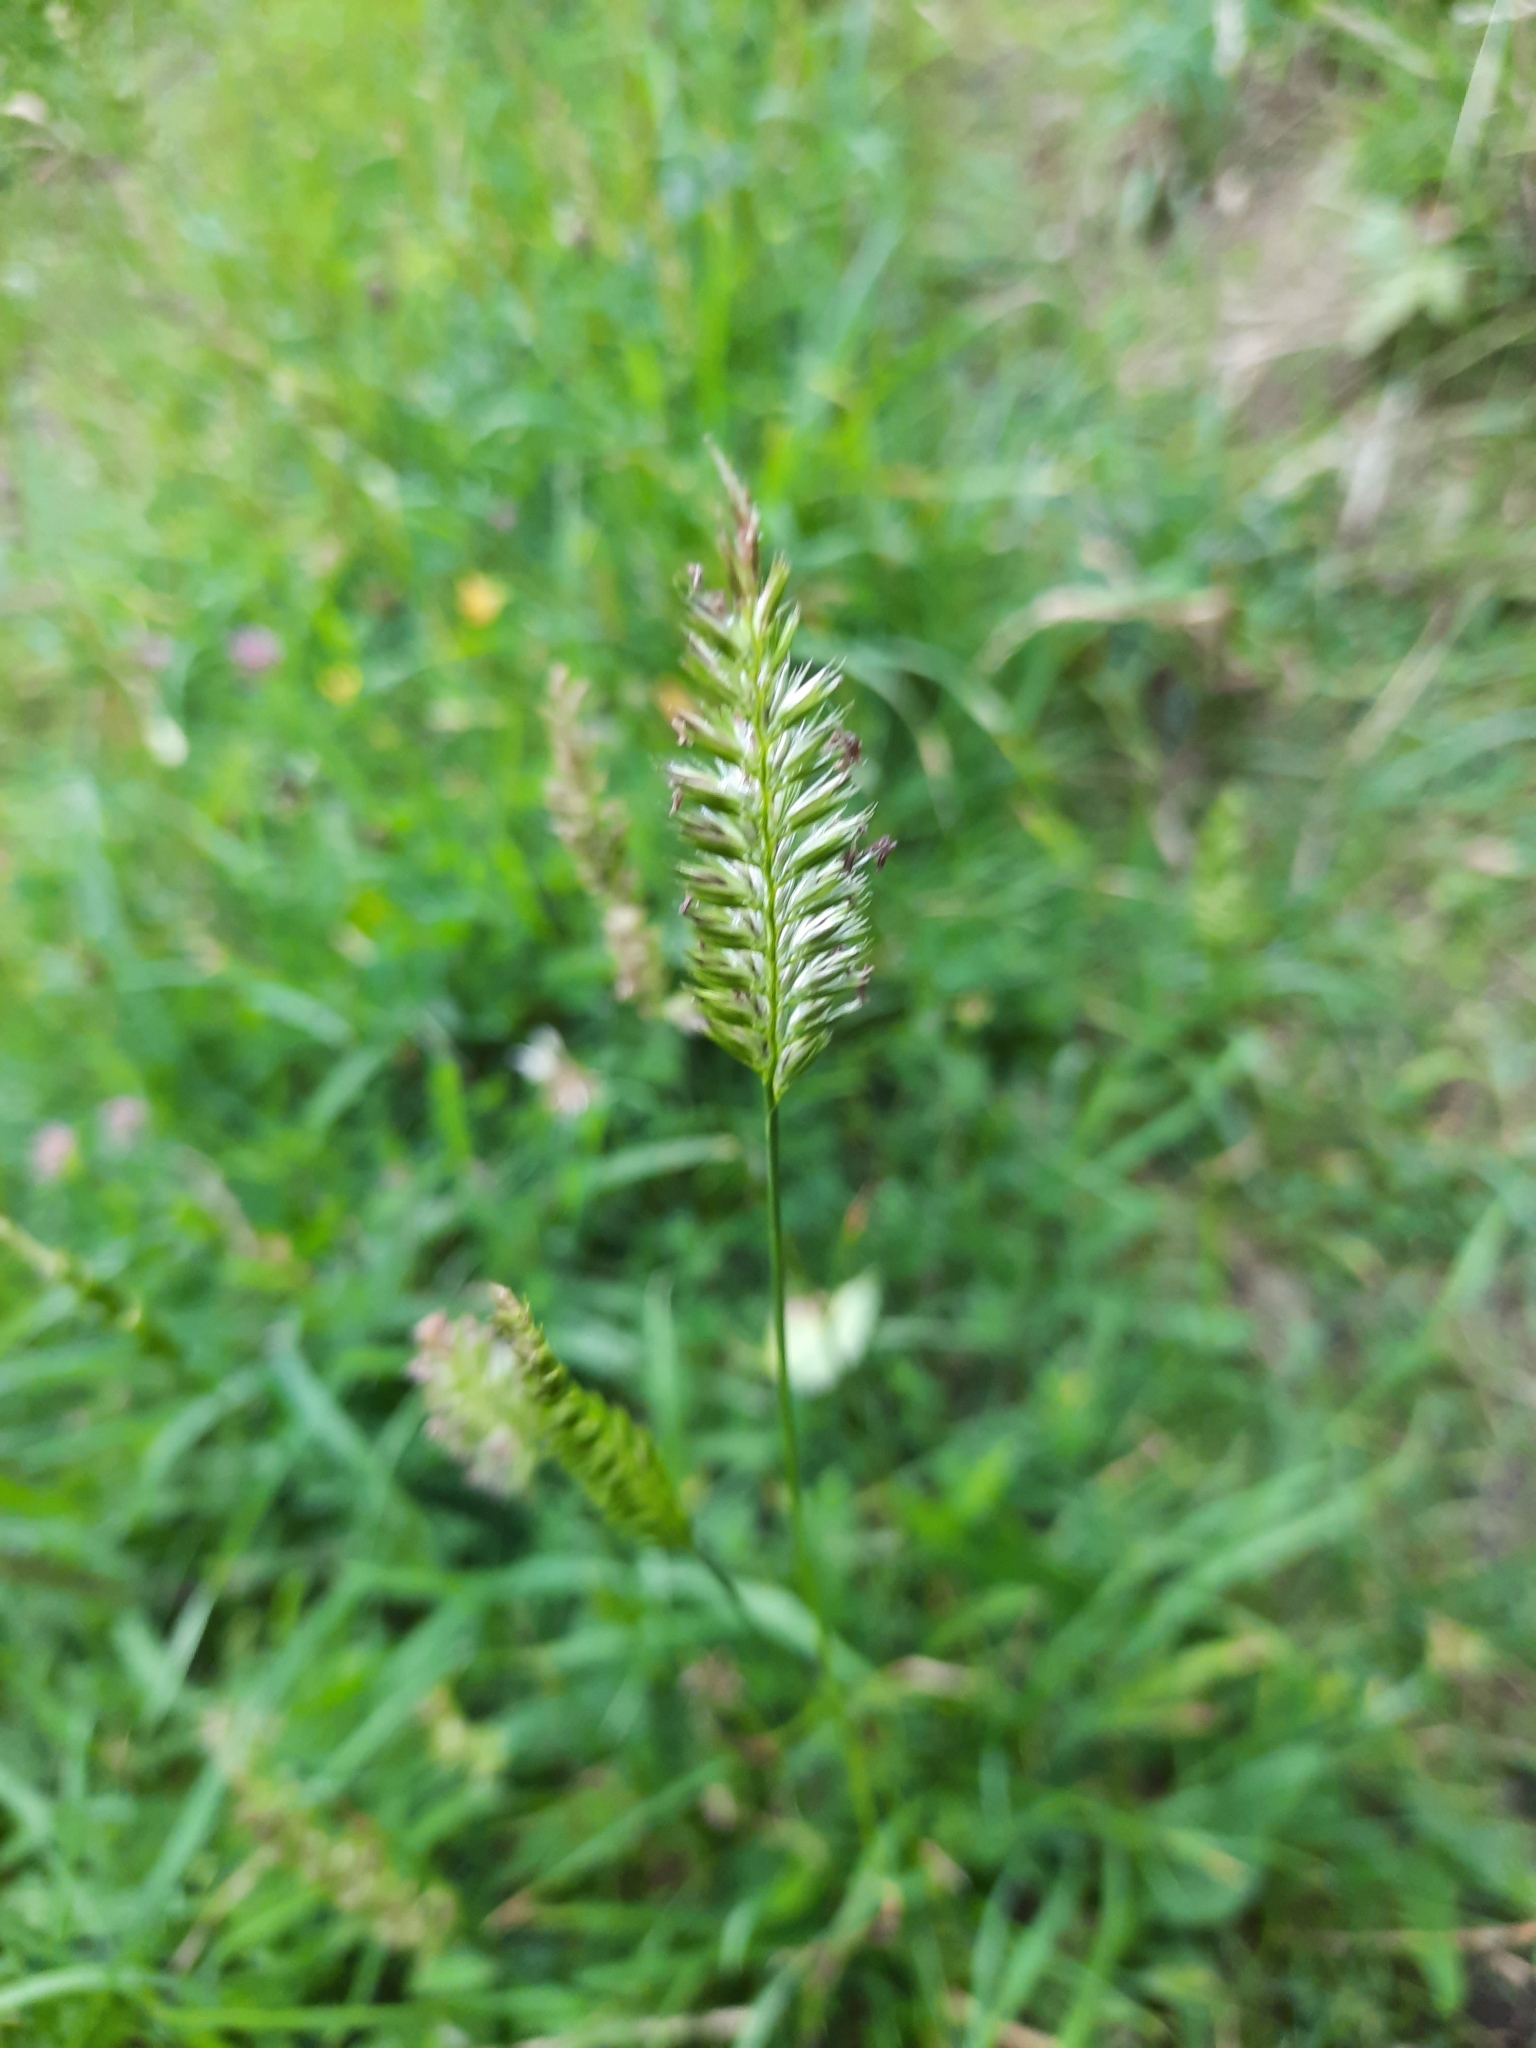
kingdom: Plantae
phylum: Tracheophyta
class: Liliopsida
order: Poales
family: Poaceae
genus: Cynosurus
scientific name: Cynosurus cristatus
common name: Crested dog's-tail
